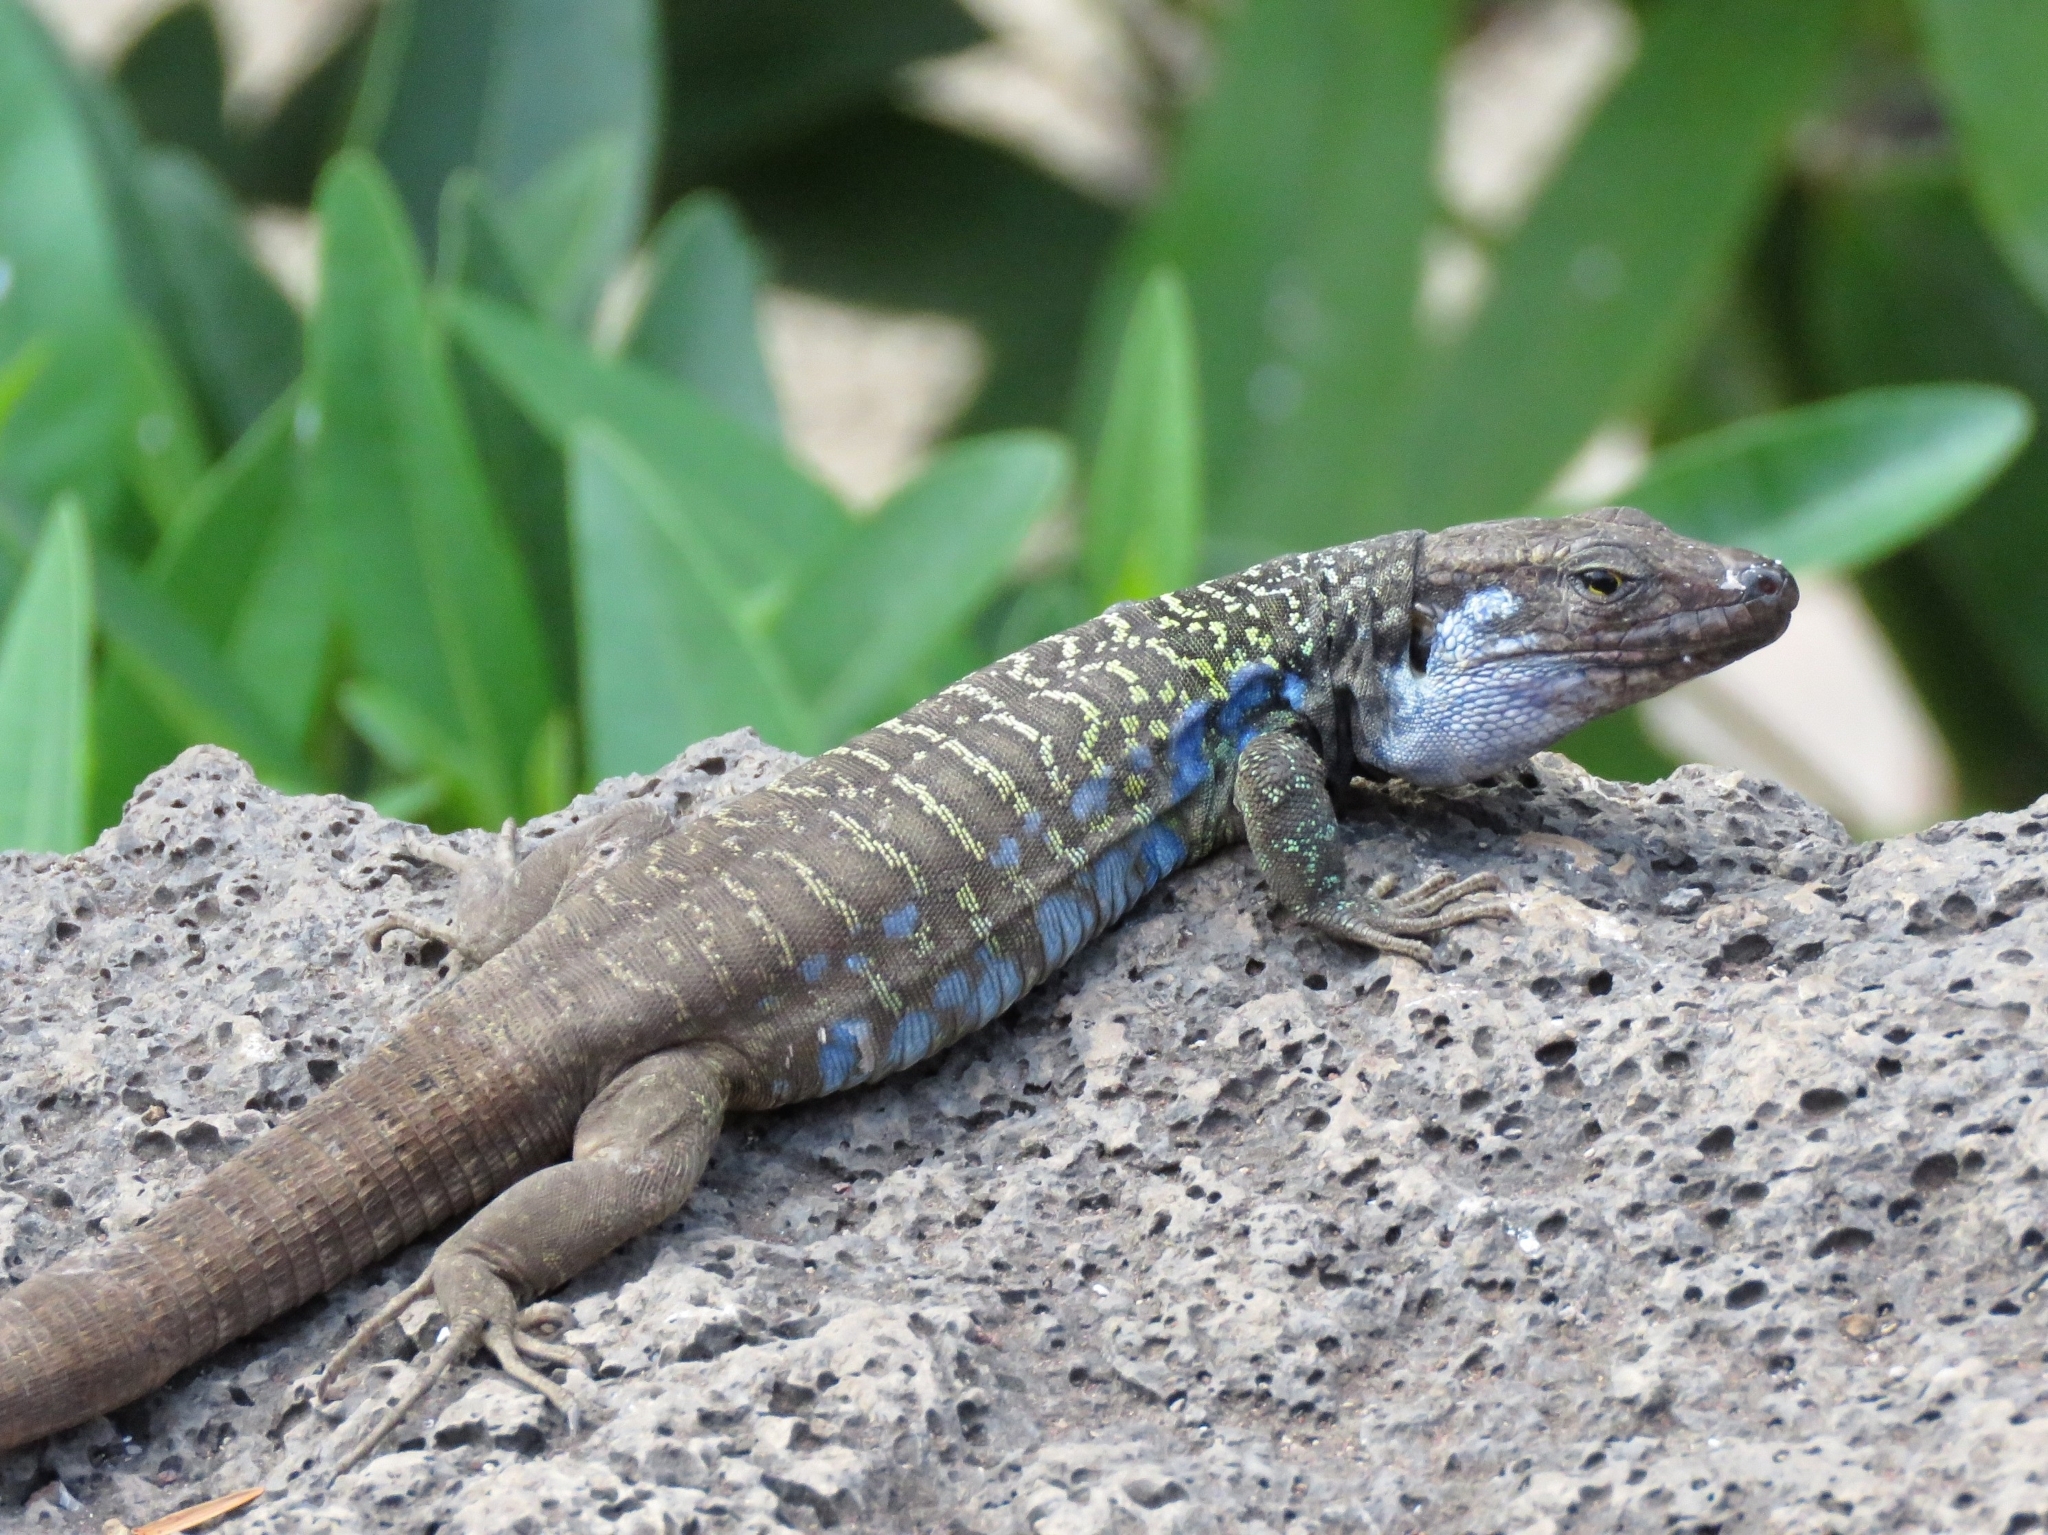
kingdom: Animalia
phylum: Chordata
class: Squamata
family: Lacertidae
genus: Gallotia
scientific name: Gallotia galloti
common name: Gallot's lizard
